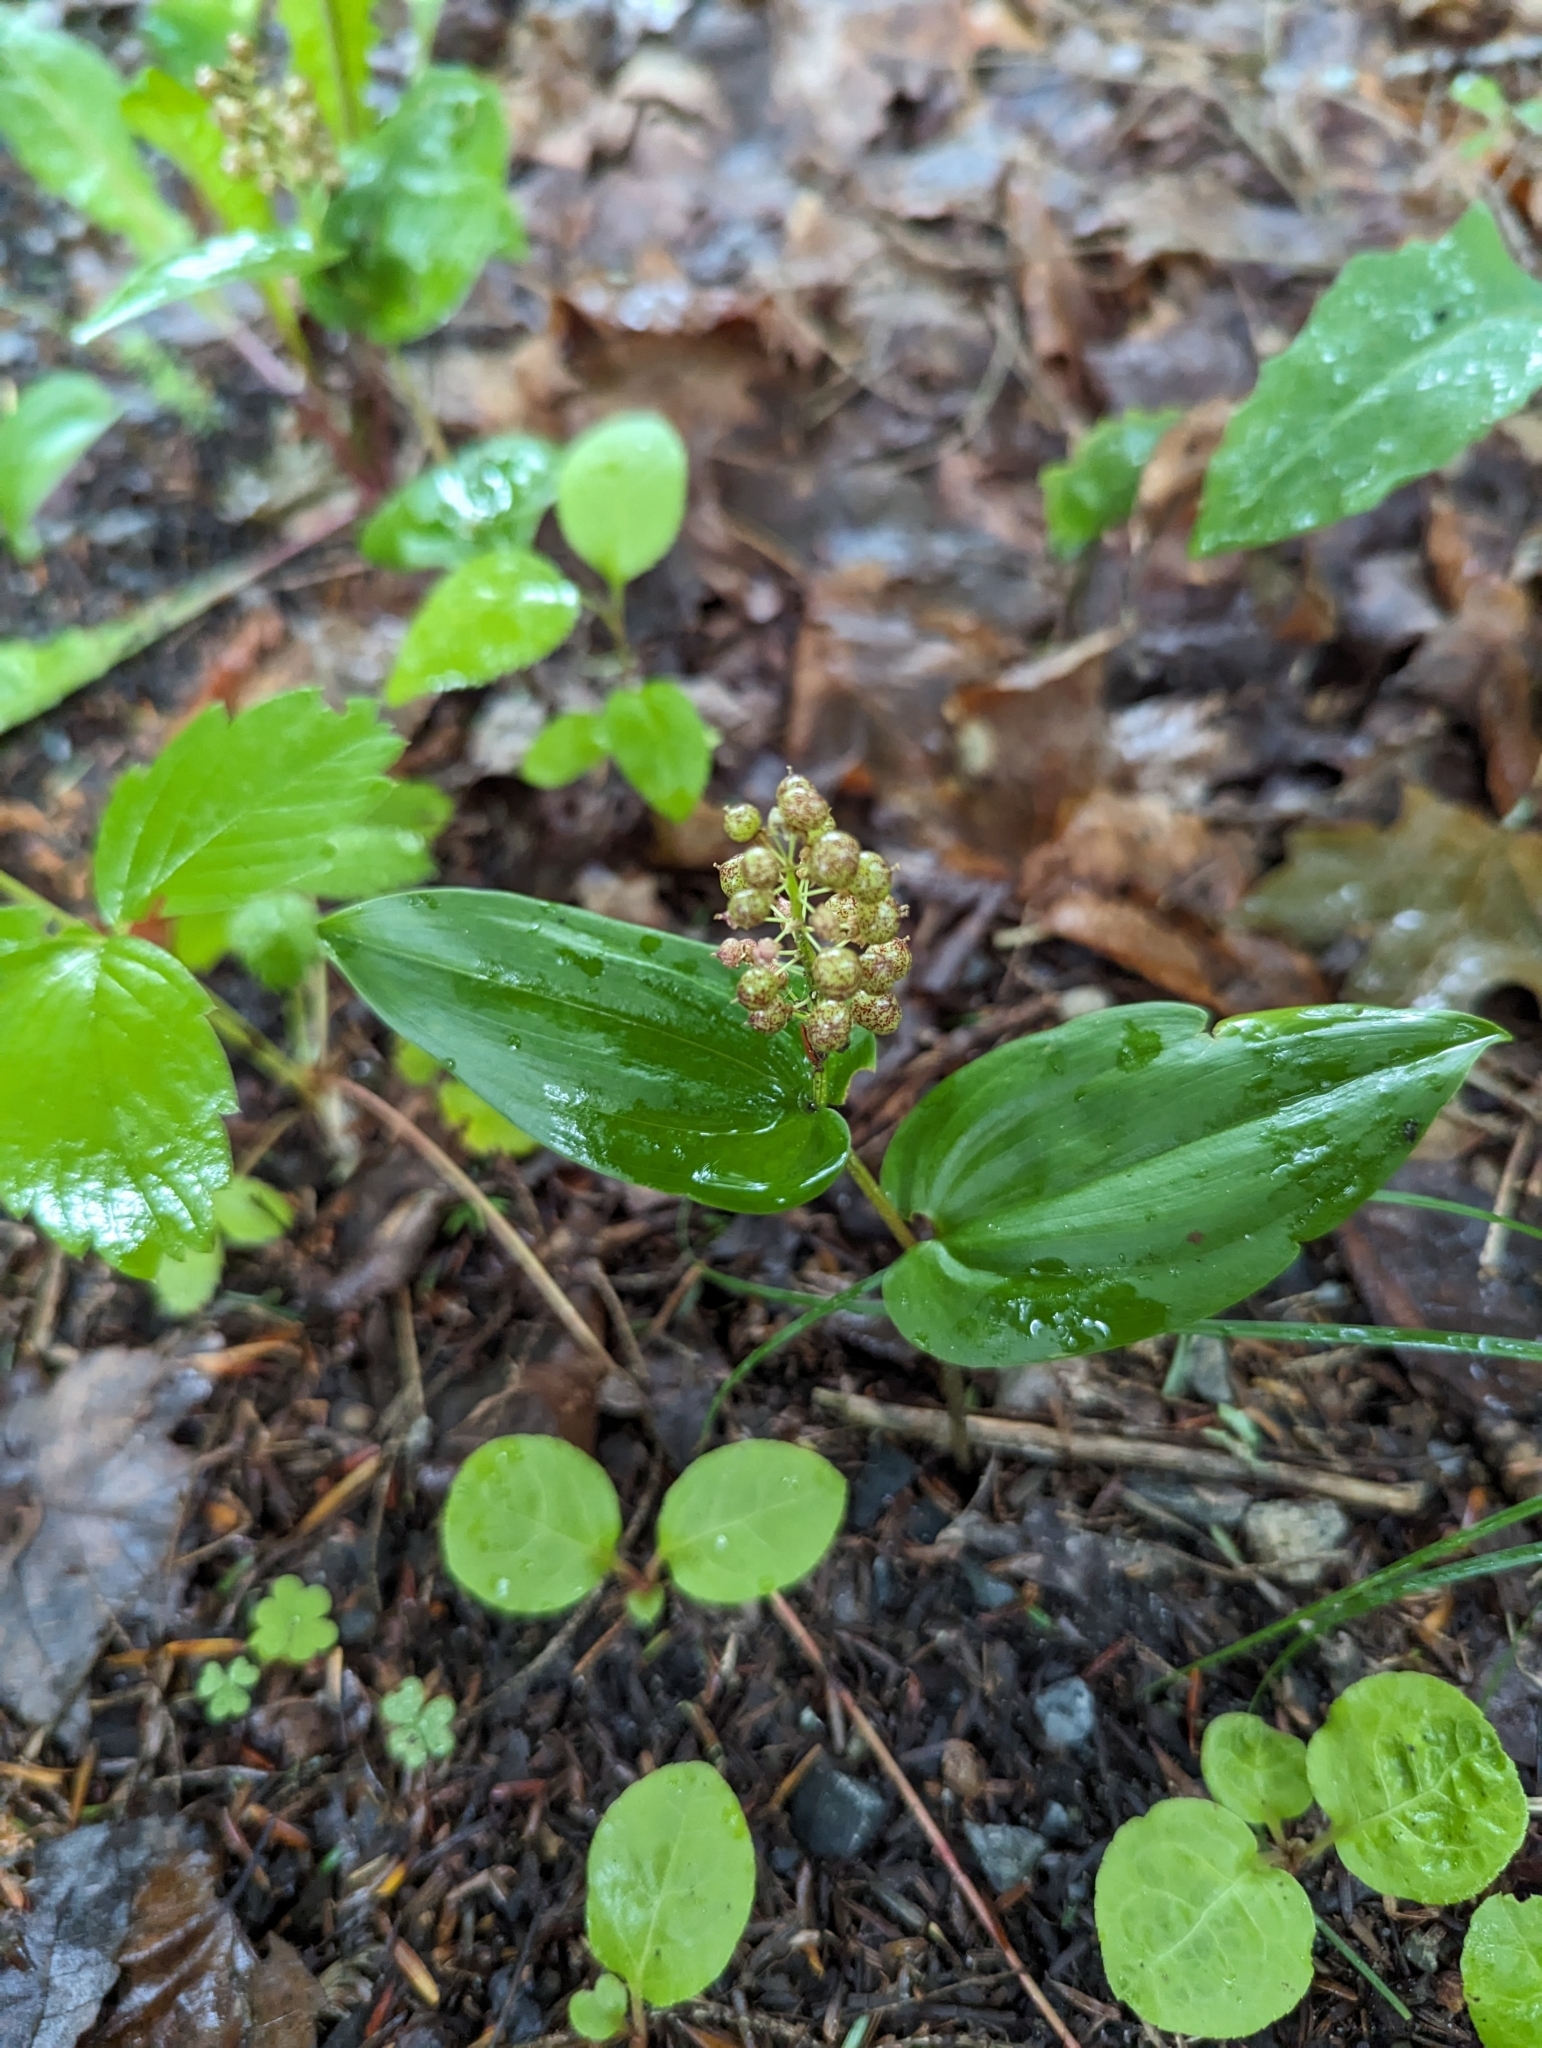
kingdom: Plantae
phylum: Tracheophyta
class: Liliopsida
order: Asparagales
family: Asparagaceae
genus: Maianthemum
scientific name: Maianthemum canadense
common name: False lily-of-the-valley
